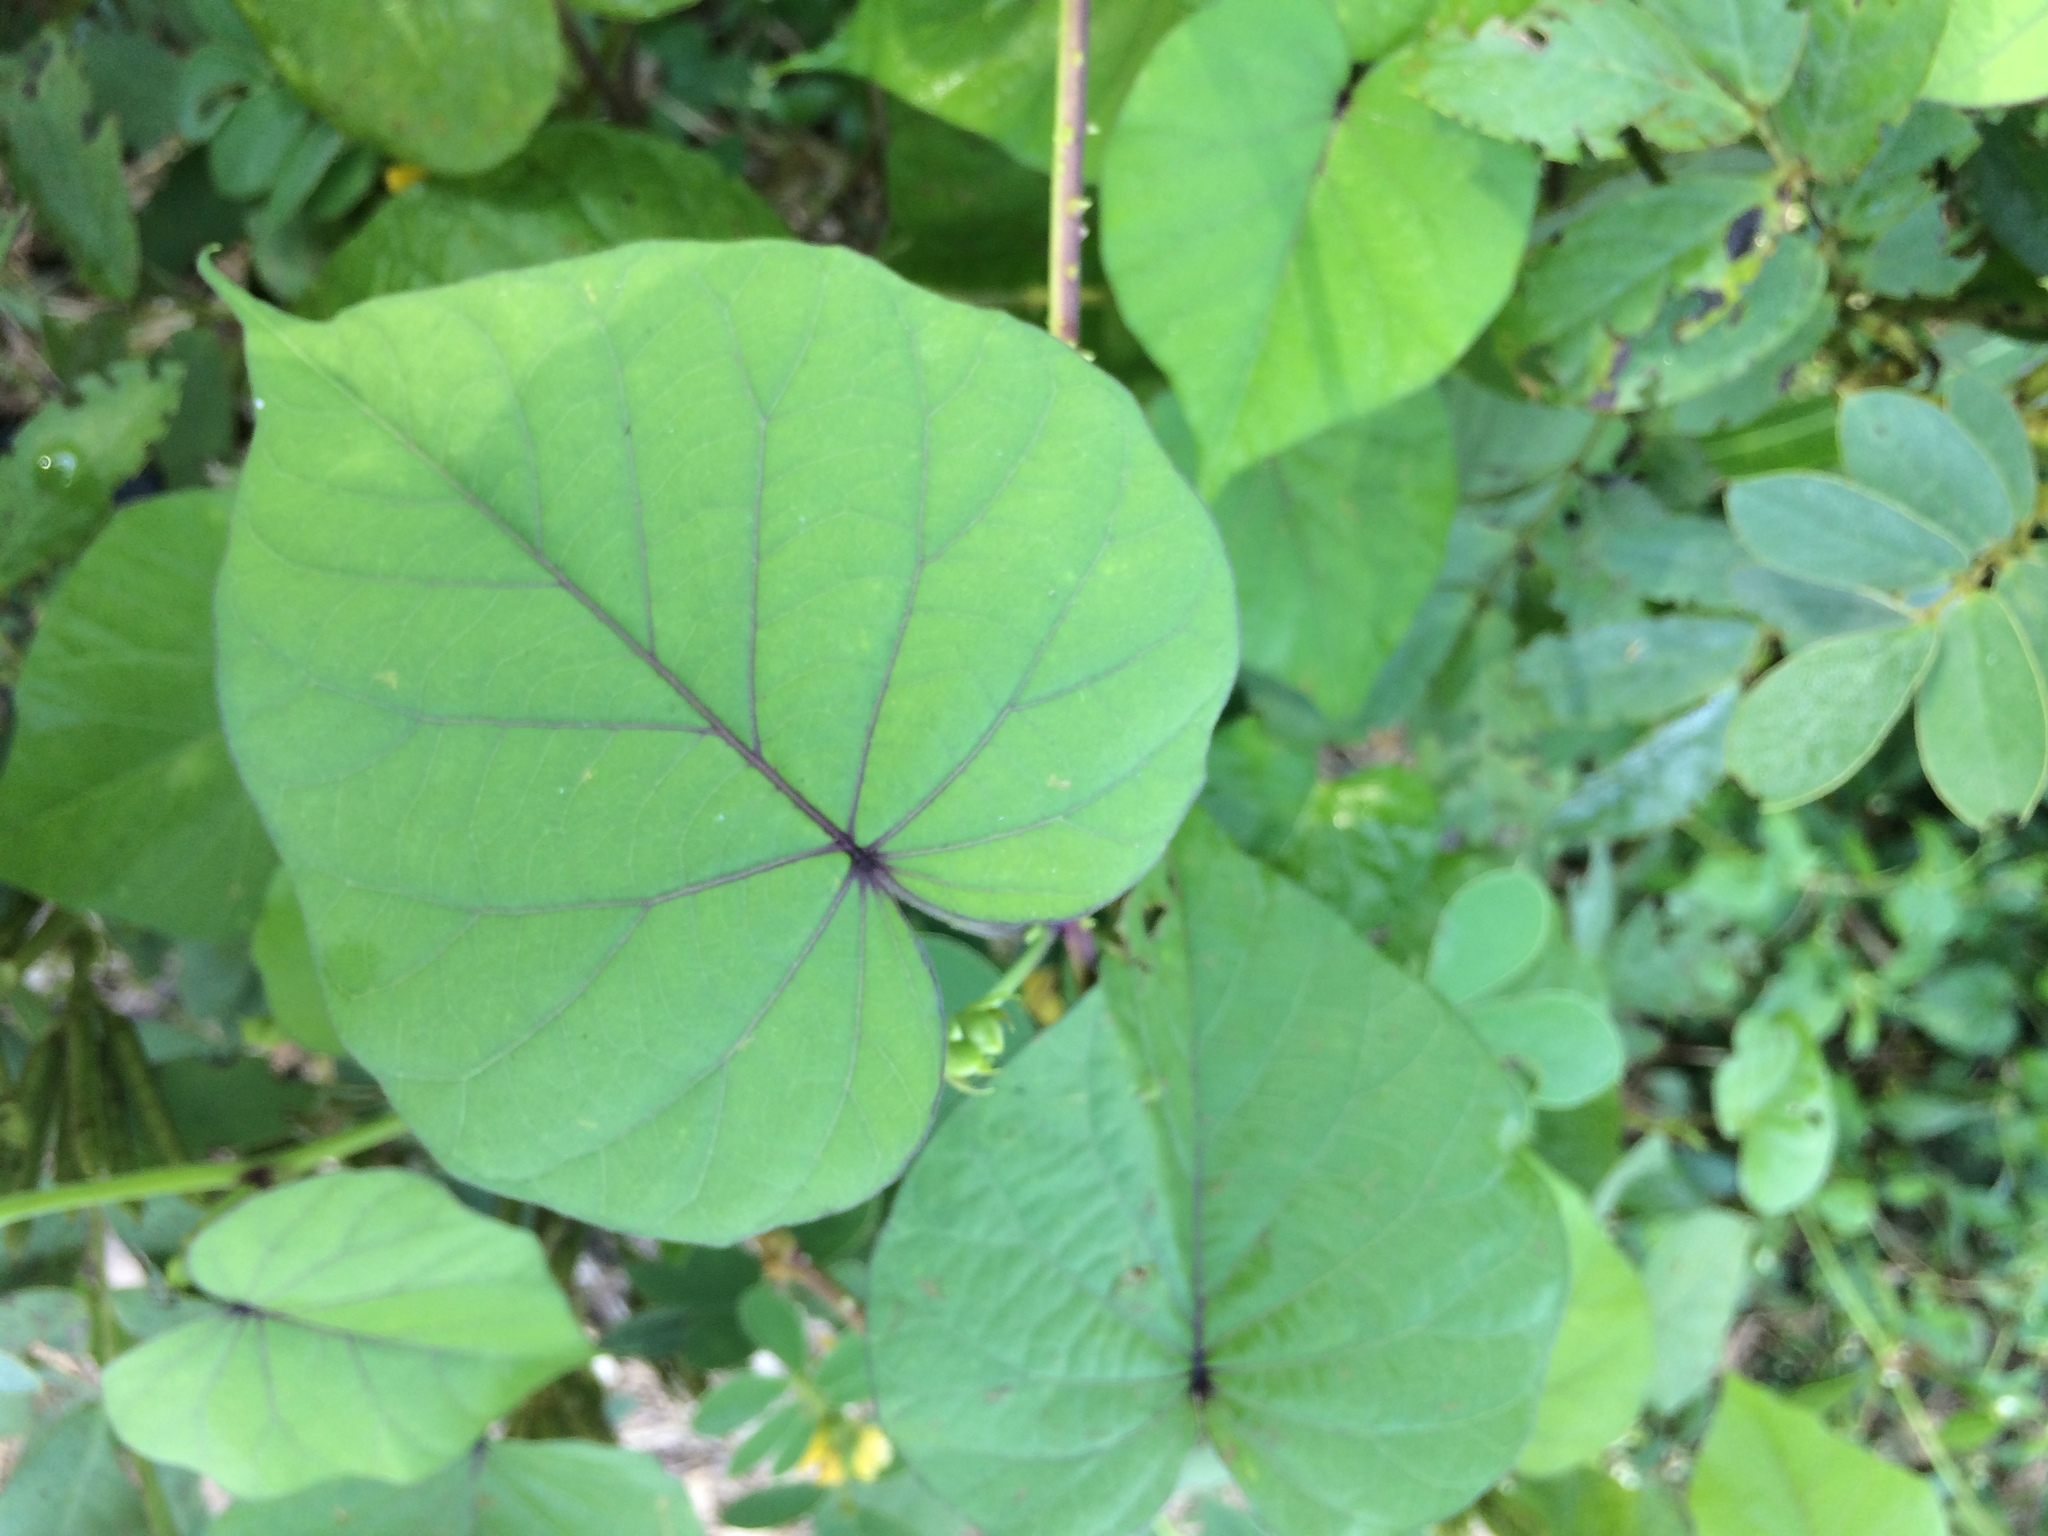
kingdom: Plantae
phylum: Tracheophyta
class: Magnoliopsida
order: Solanales
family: Convolvulaceae
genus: Ipomoea
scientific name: Ipomoea parasitica
